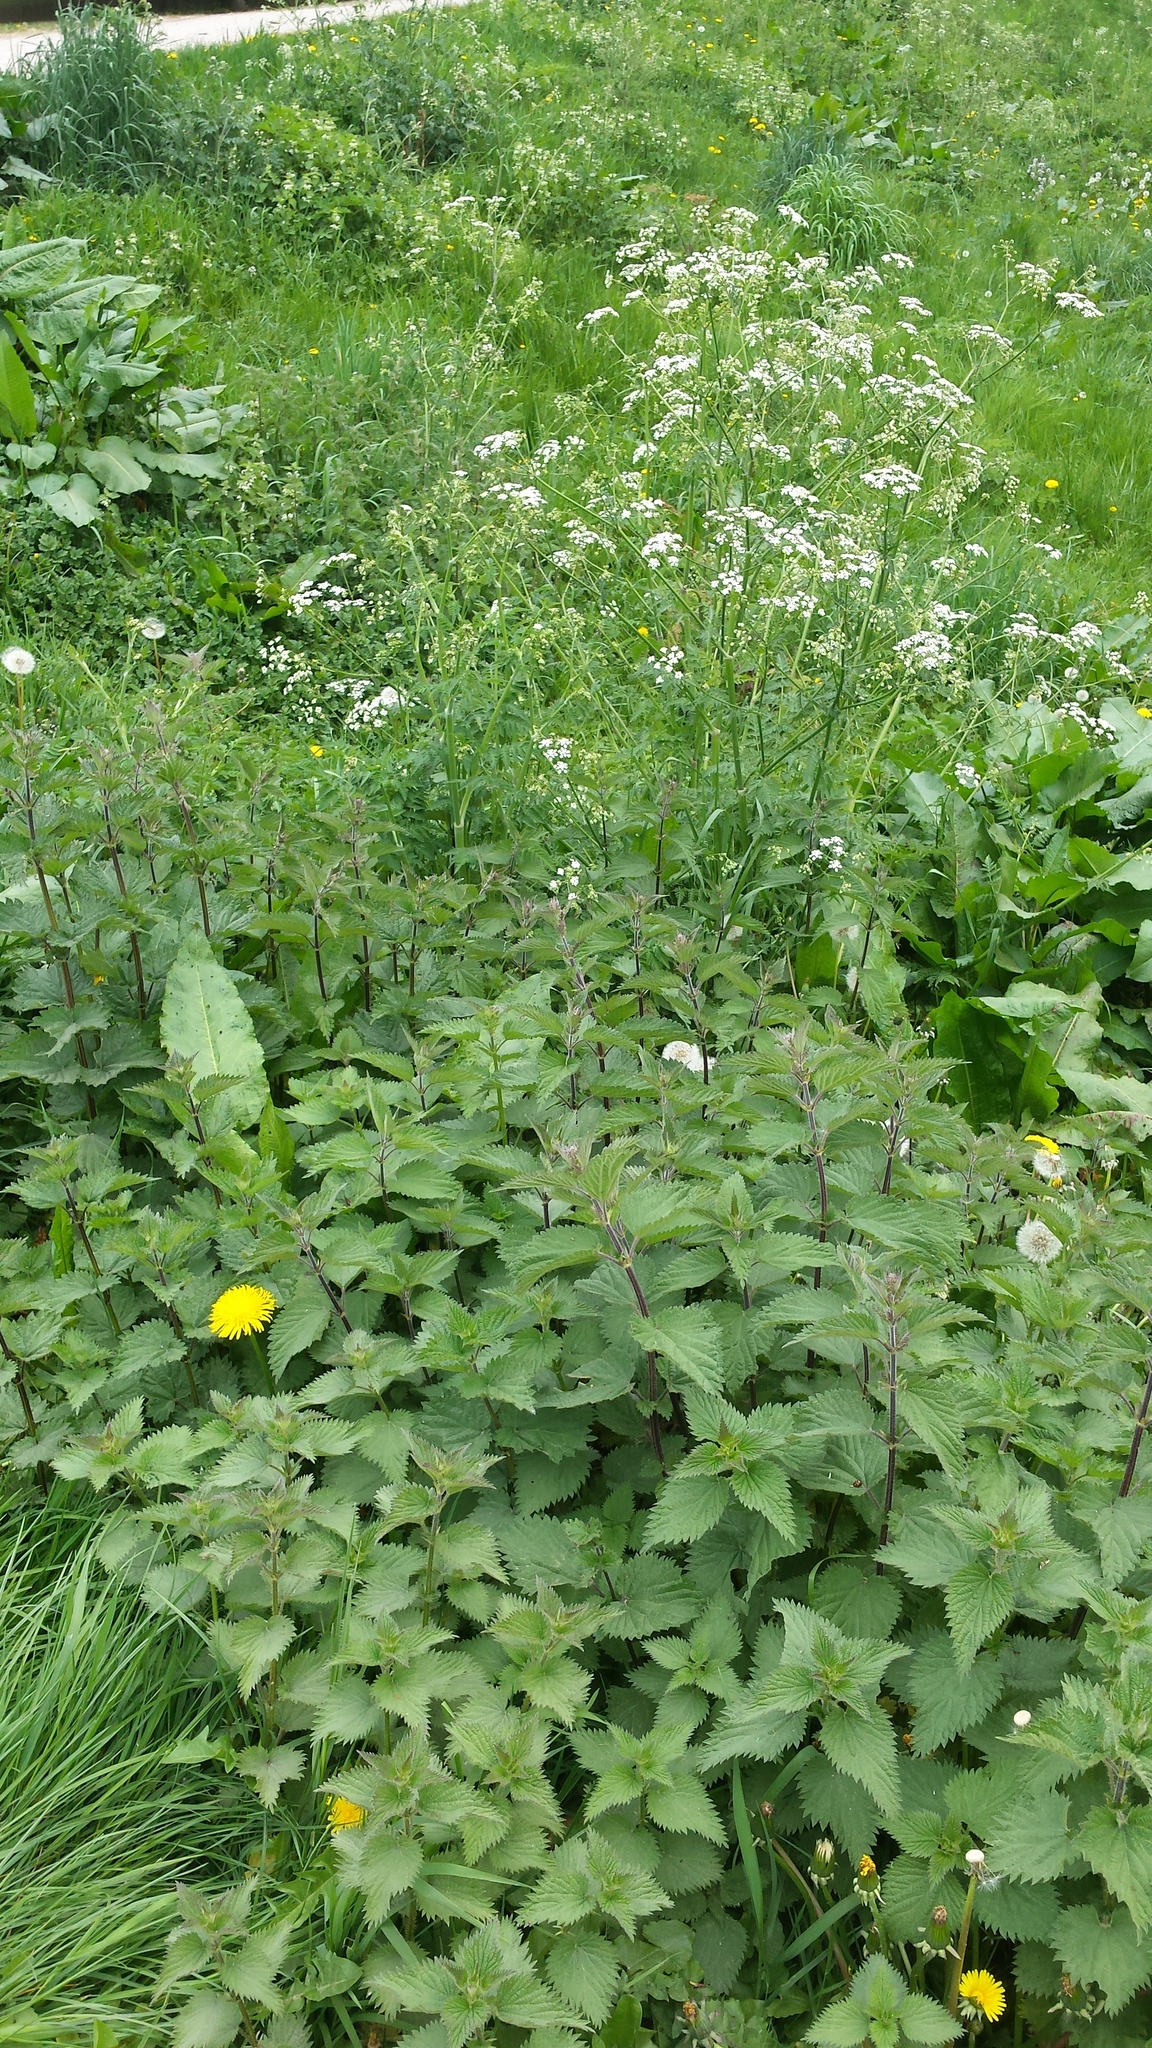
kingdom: Plantae
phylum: Tracheophyta
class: Magnoliopsida
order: Apiales
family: Apiaceae
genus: Anthriscus
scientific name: Anthriscus sylvestris
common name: Cow parsley
